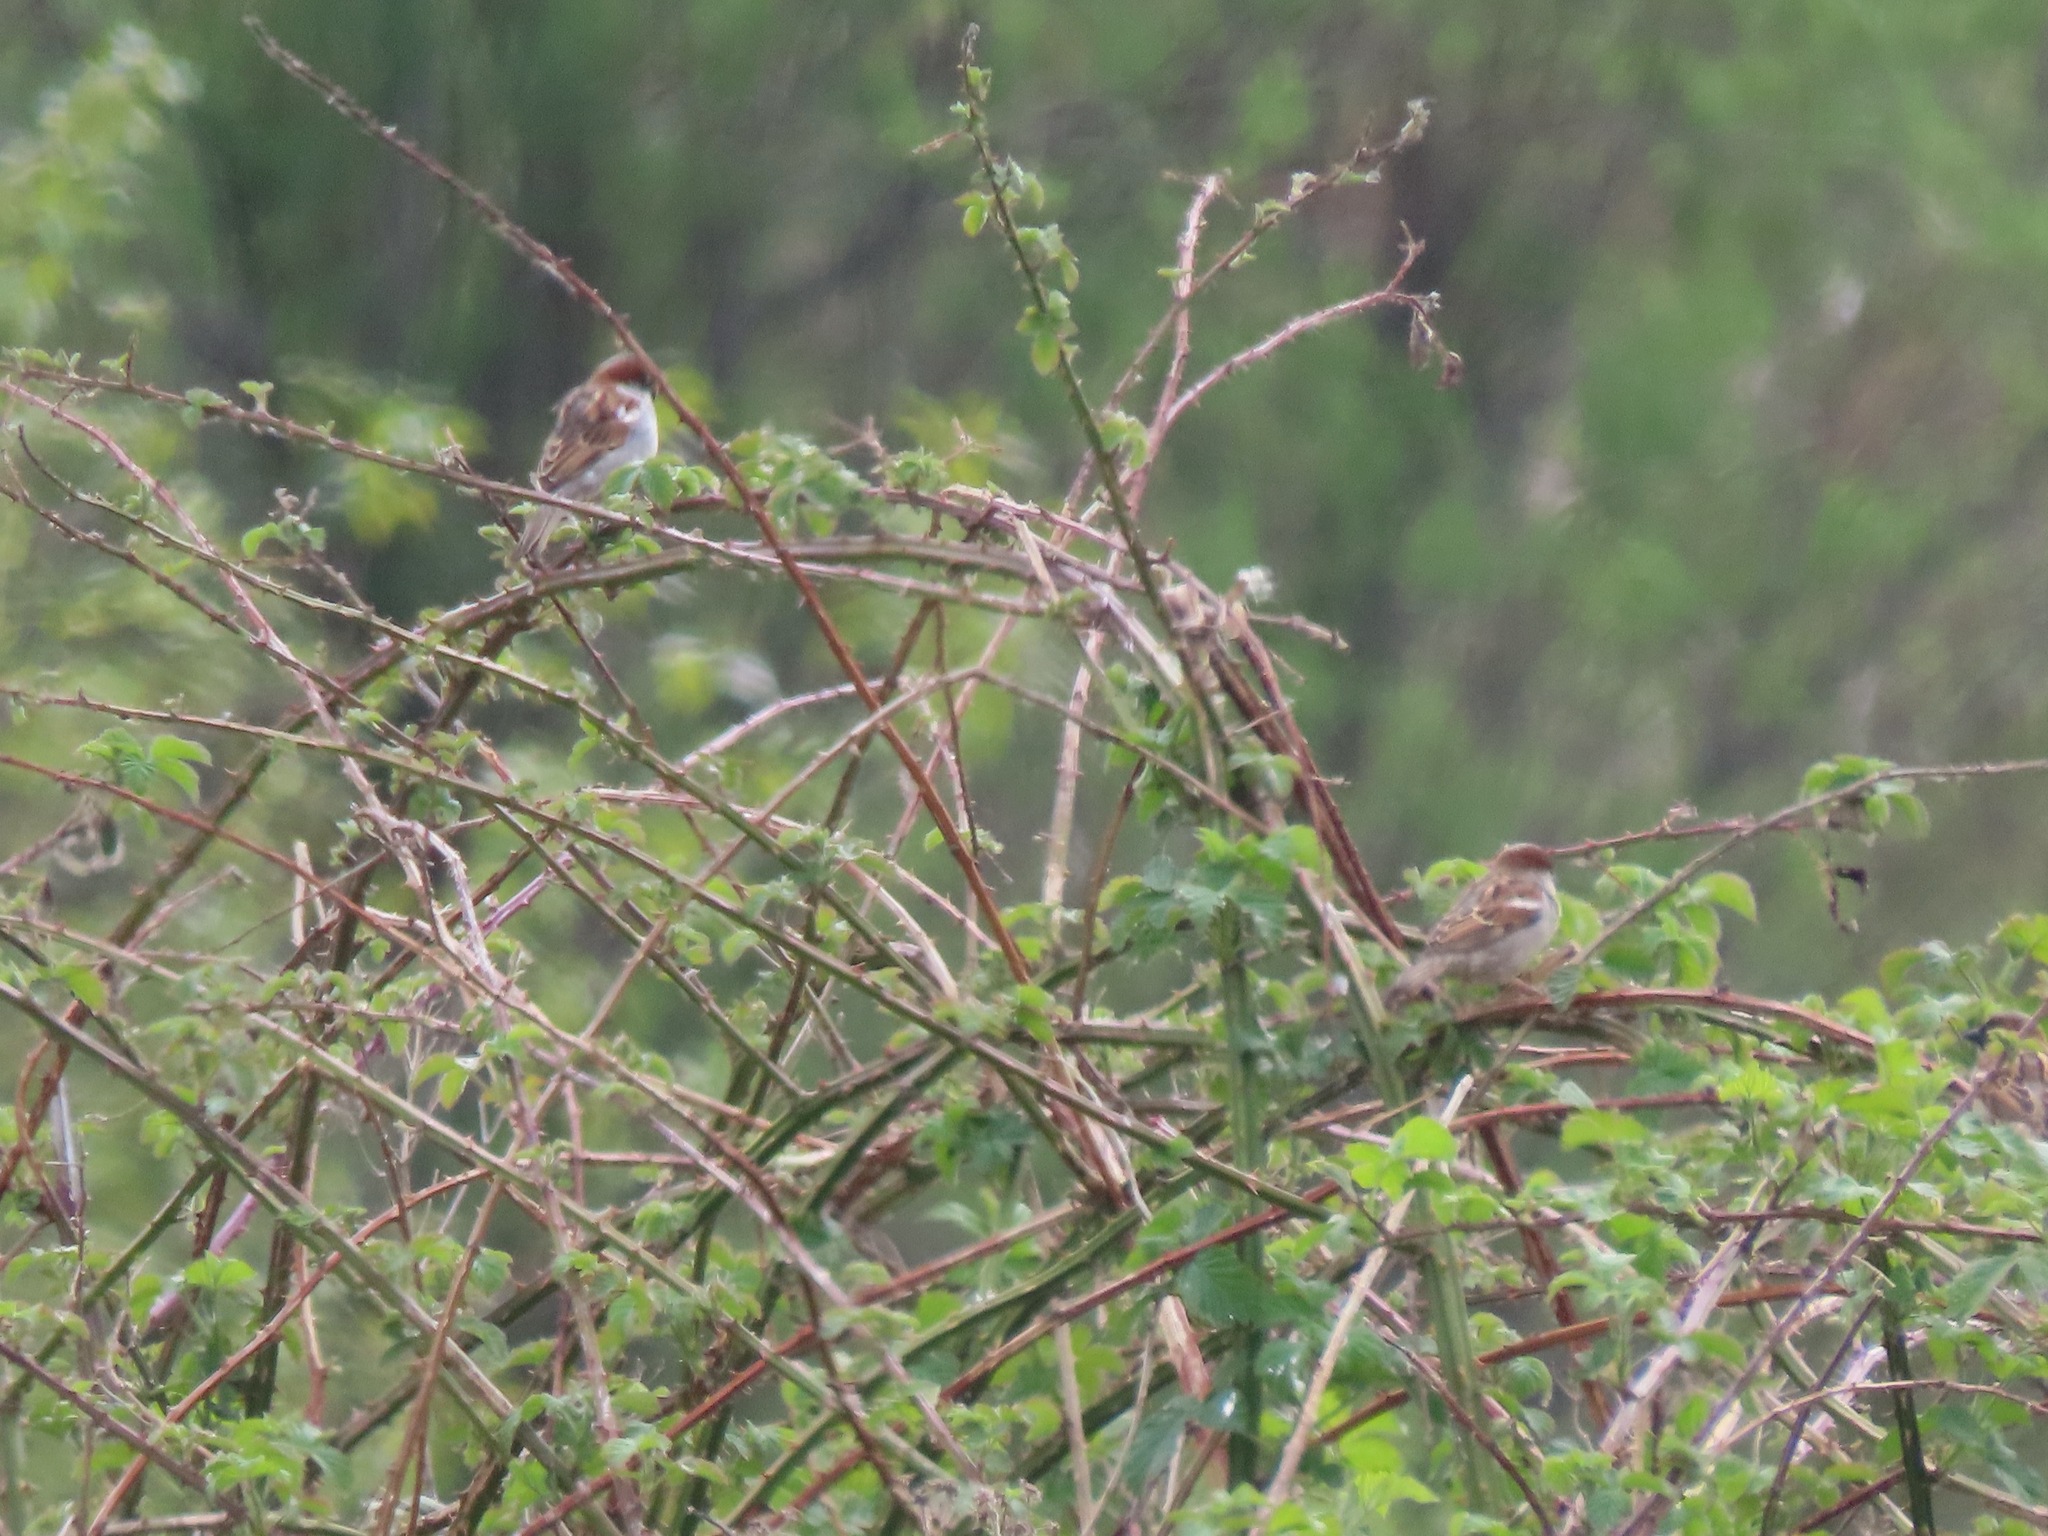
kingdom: Animalia
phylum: Chordata
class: Aves
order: Passeriformes
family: Passeridae
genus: Passer
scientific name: Passer domesticus
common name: House sparrow
